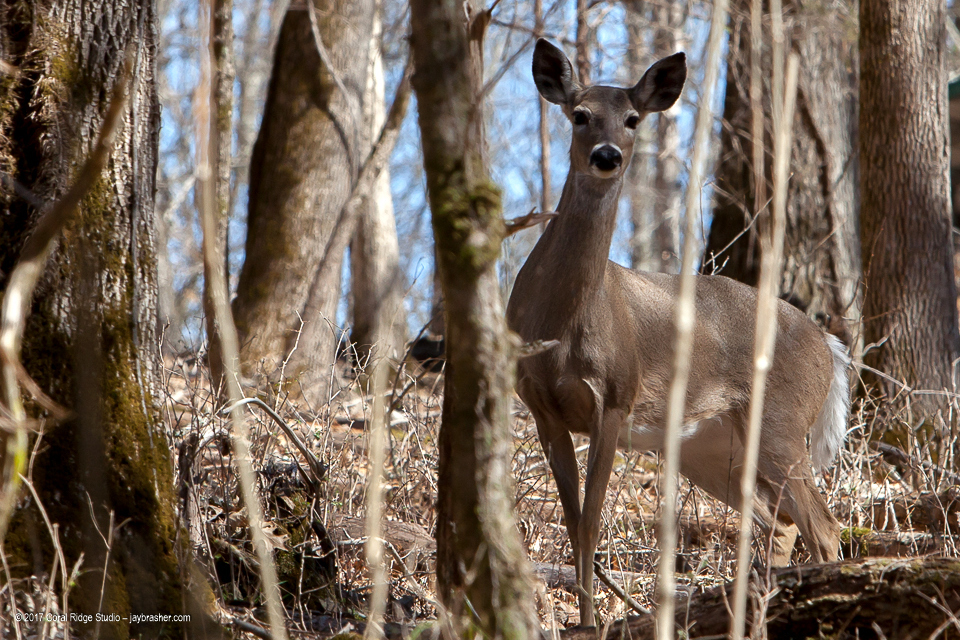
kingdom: Animalia
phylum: Chordata
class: Mammalia
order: Artiodactyla
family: Cervidae
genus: Odocoileus
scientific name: Odocoileus virginianus
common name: White-tailed deer
